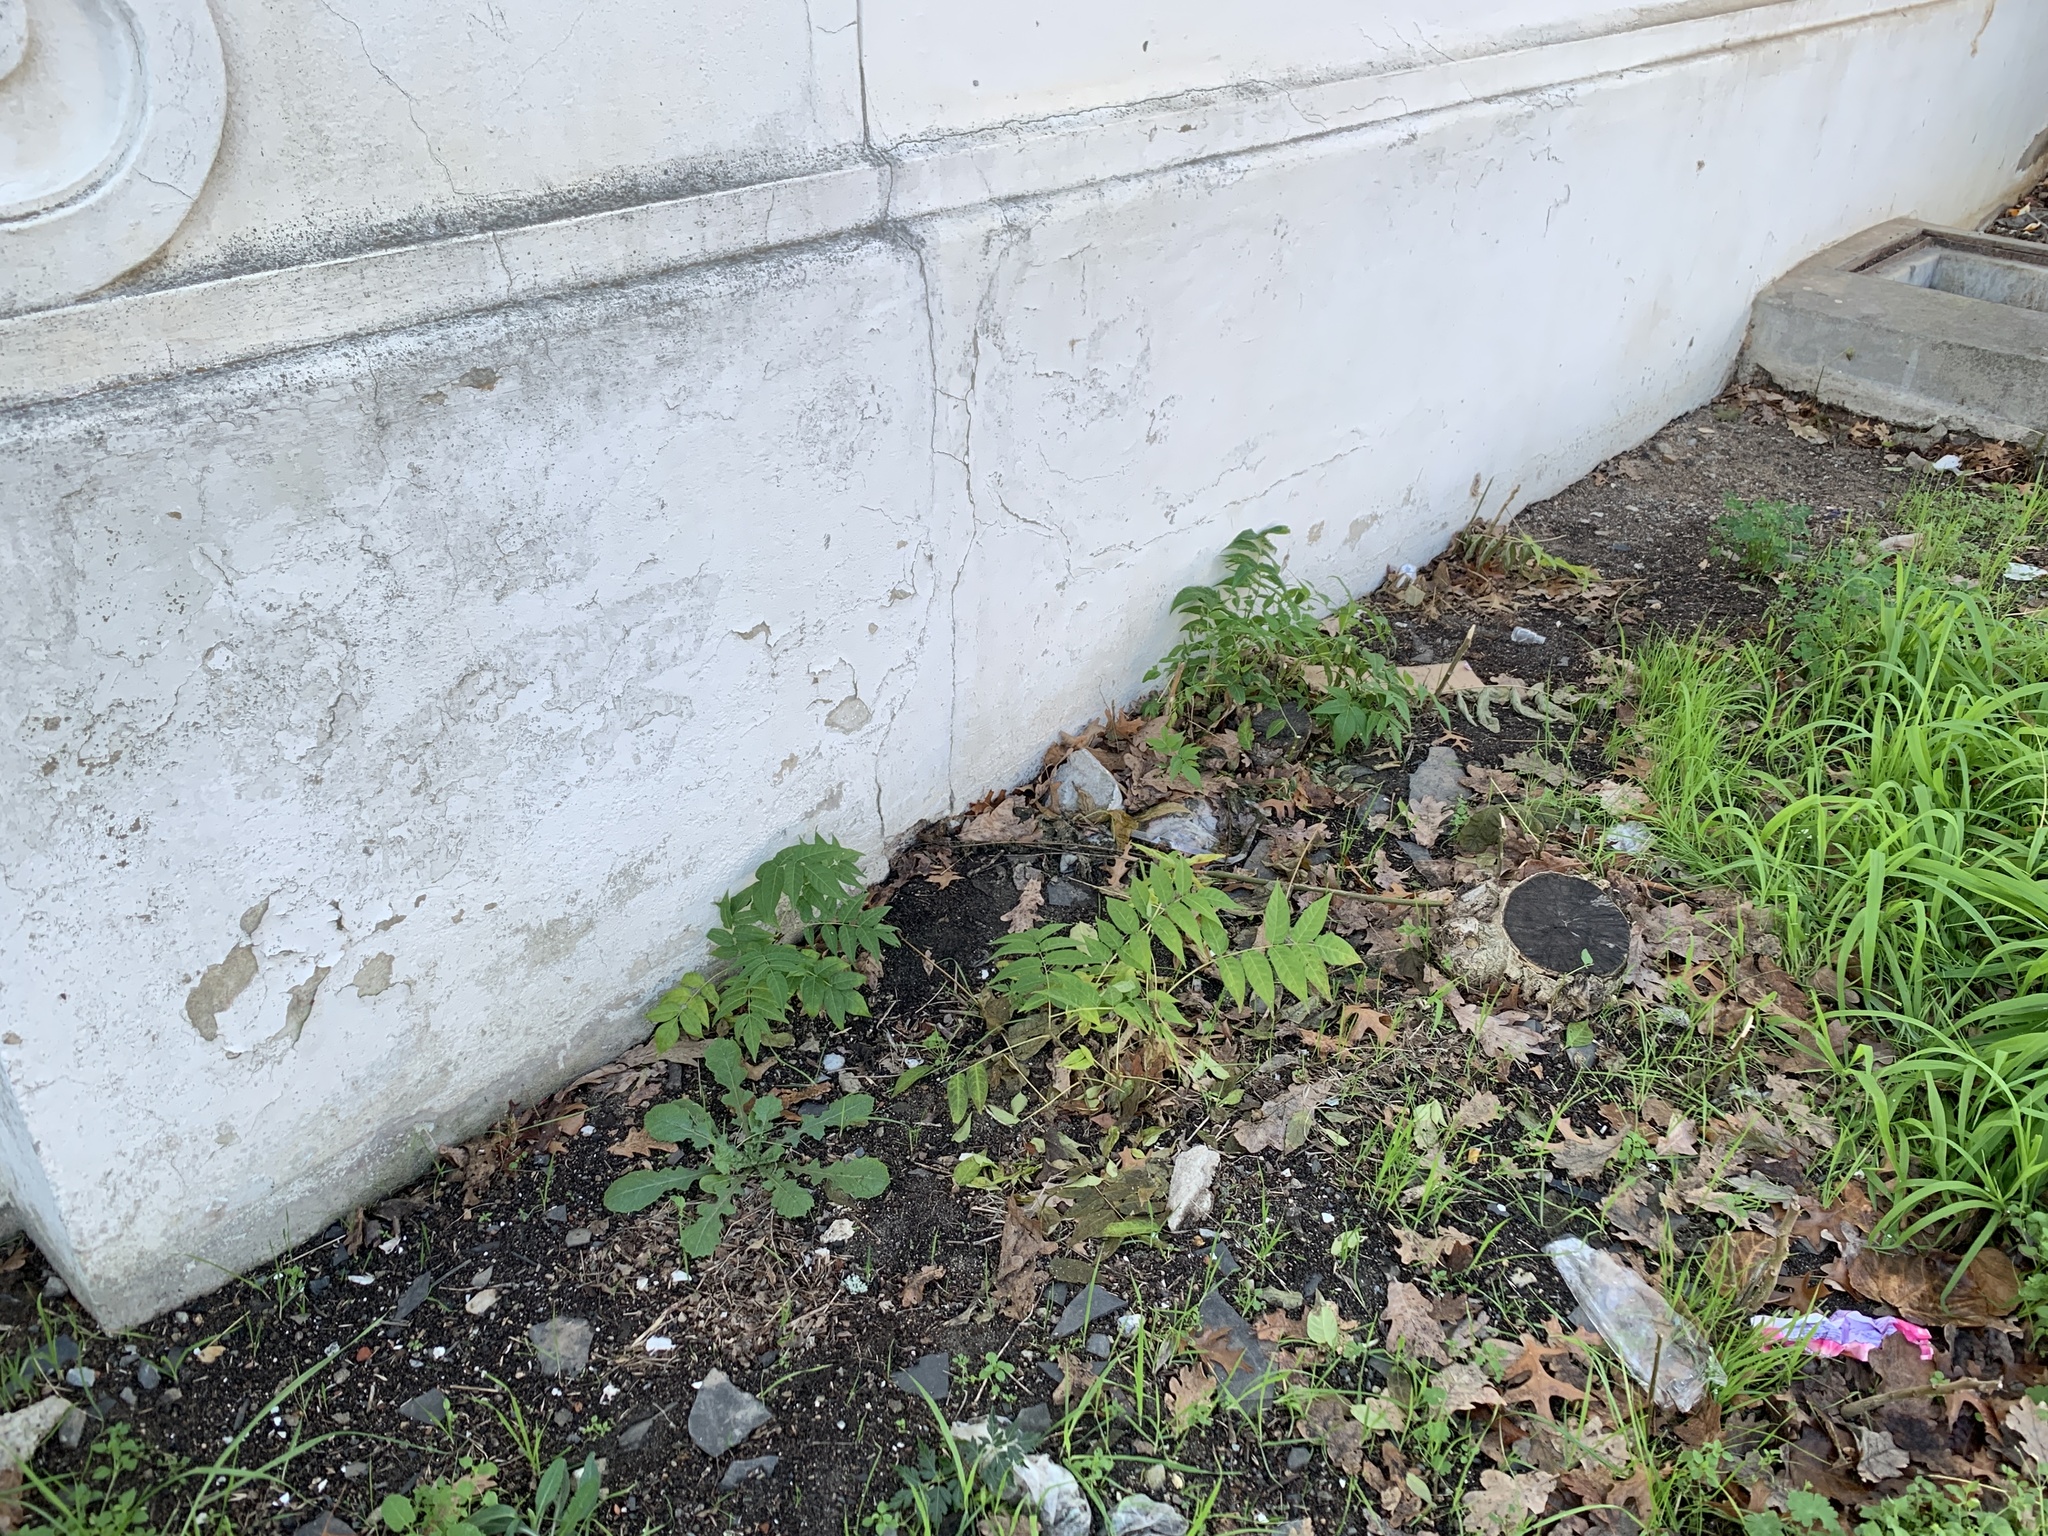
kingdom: Plantae
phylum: Tracheophyta
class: Magnoliopsida
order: Sapindales
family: Simaroubaceae
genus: Ailanthus
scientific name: Ailanthus altissima
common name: Tree-of-heaven
